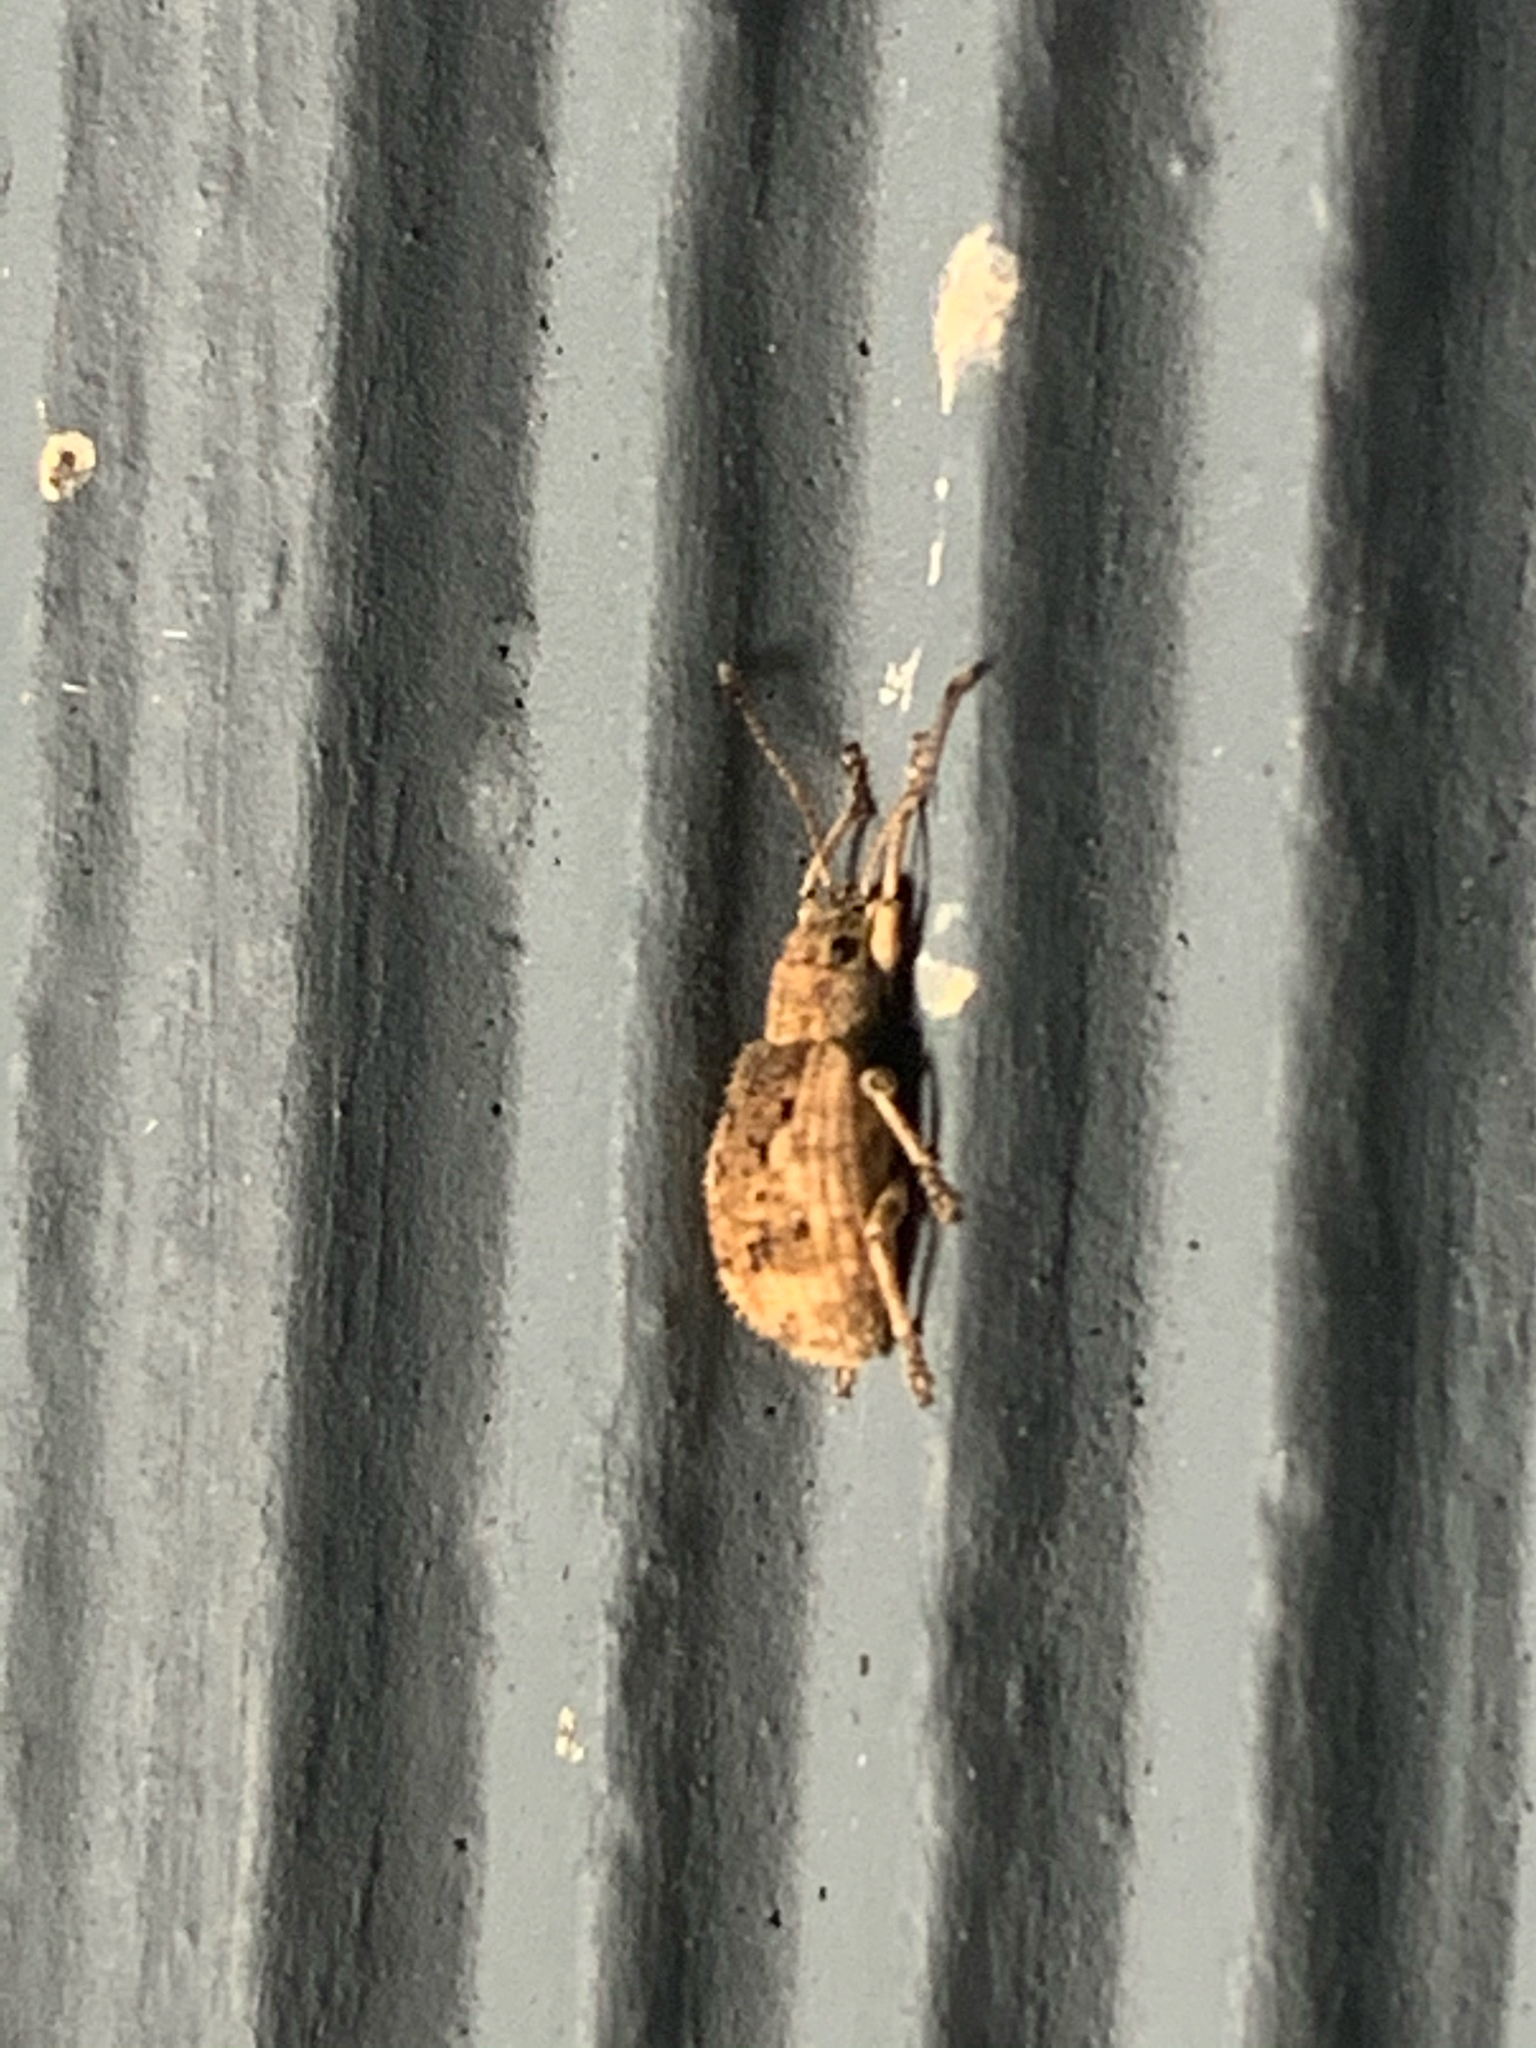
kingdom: Animalia
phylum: Arthropoda
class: Insecta
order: Coleoptera
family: Curculionidae
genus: Pseudoedophrys
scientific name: Pseudoedophrys hilleri
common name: Weevil
